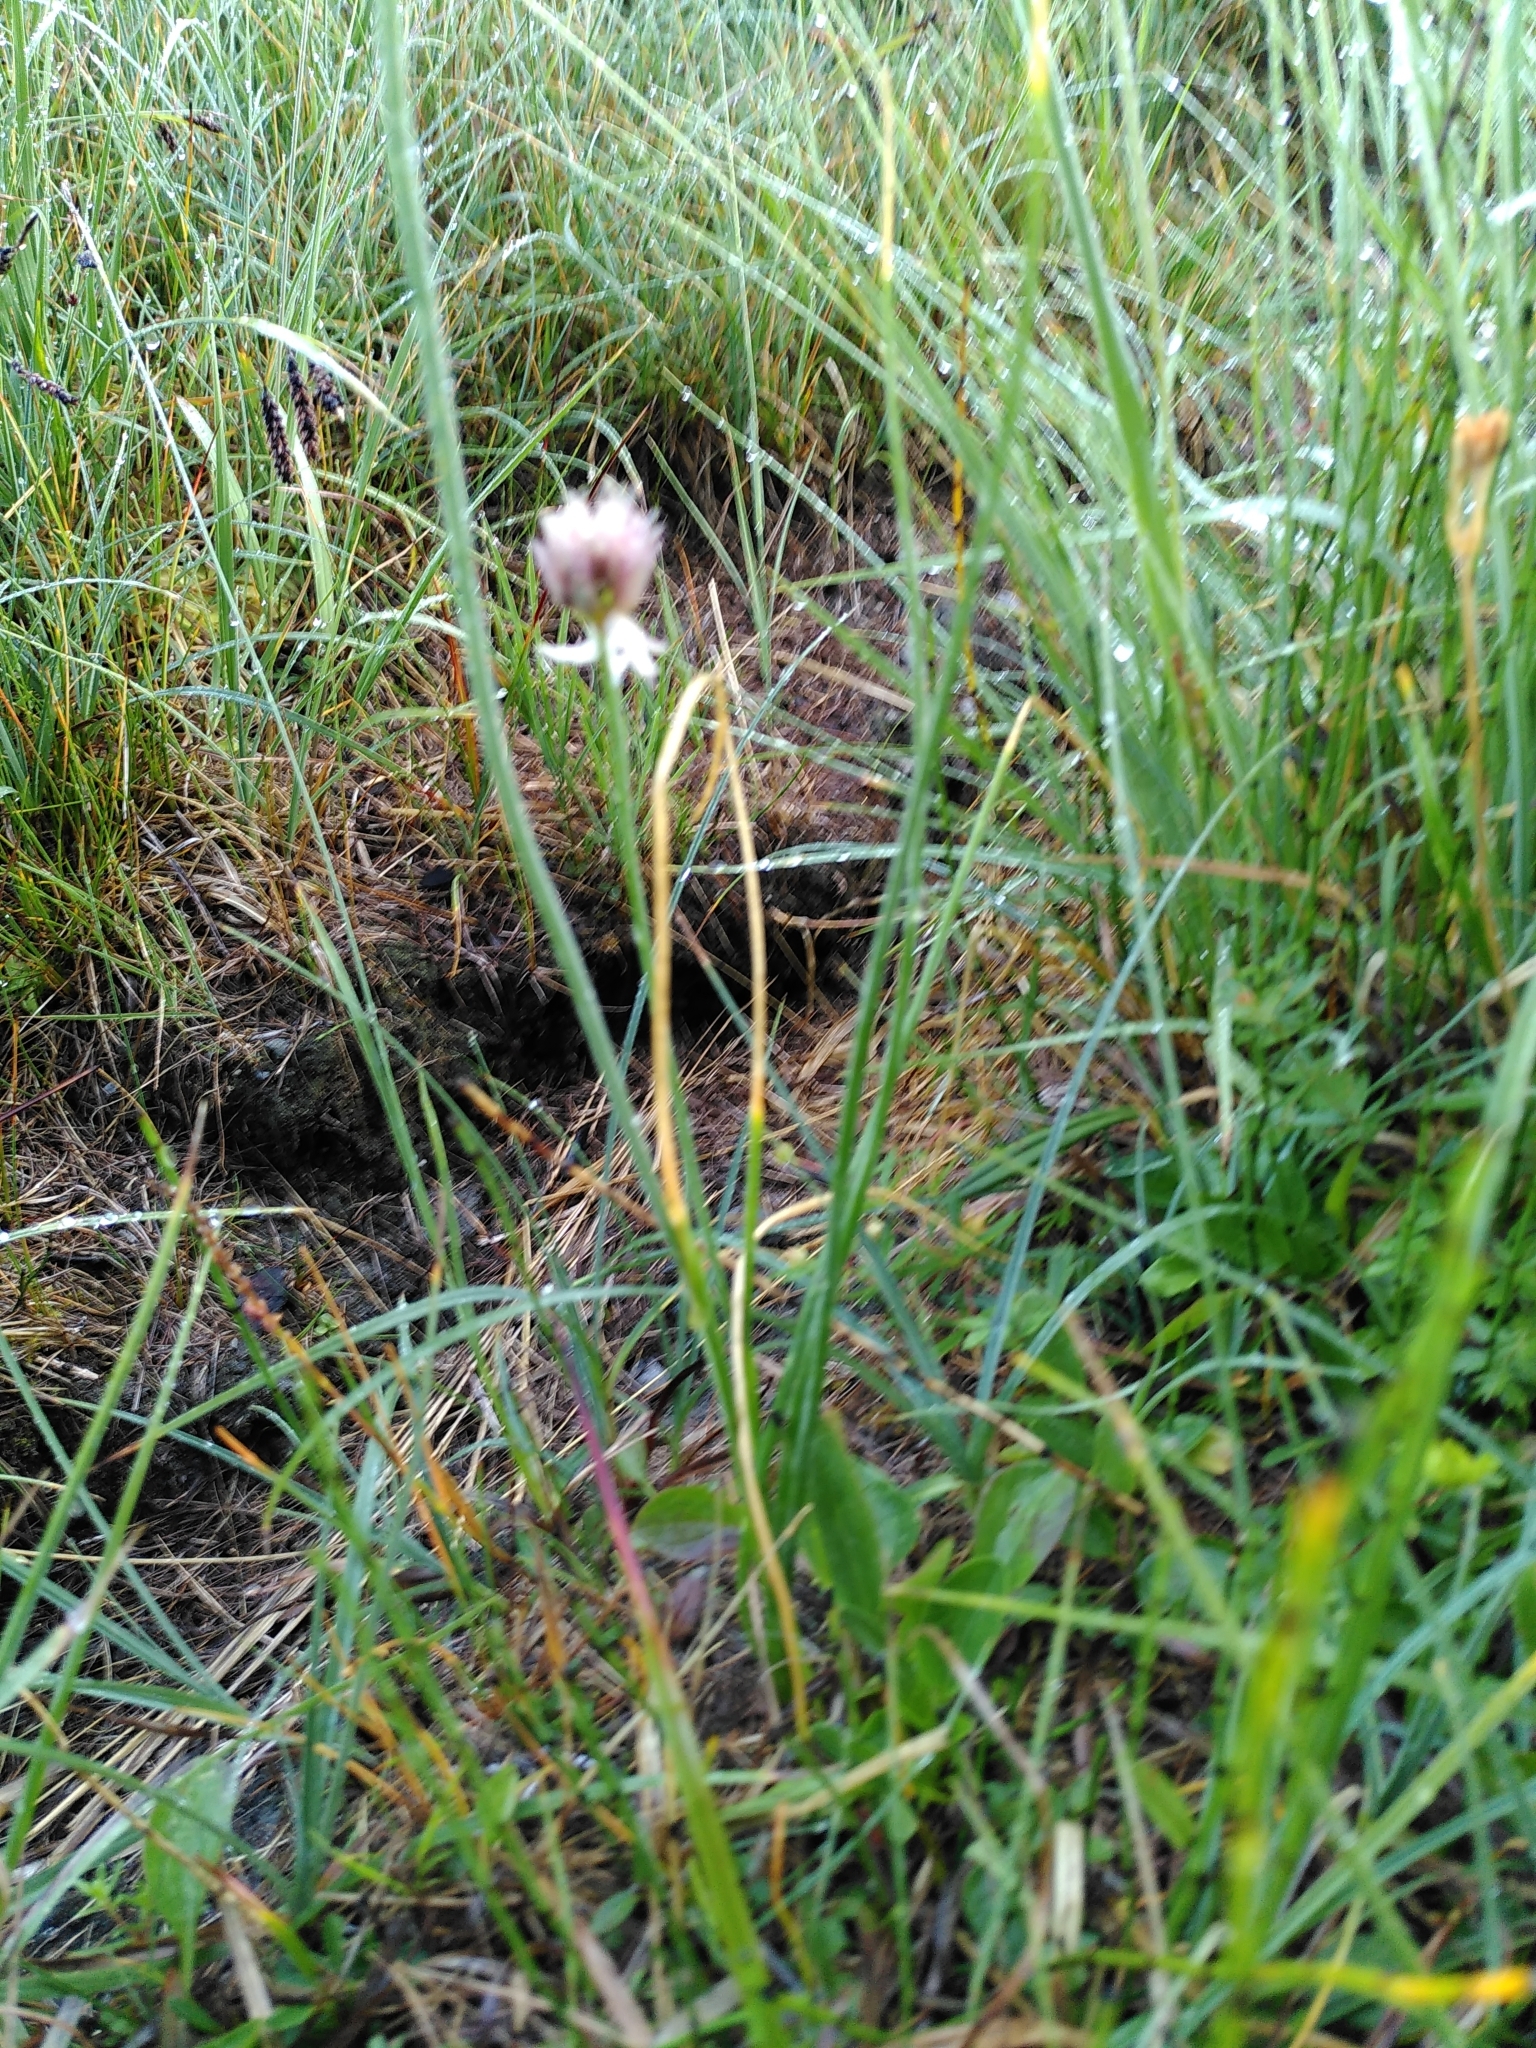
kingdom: Plantae
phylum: Tracheophyta
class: Liliopsida
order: Asparagales
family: Amaryllidaceae
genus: Allium
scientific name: Allium schoenoprasum
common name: Chives
